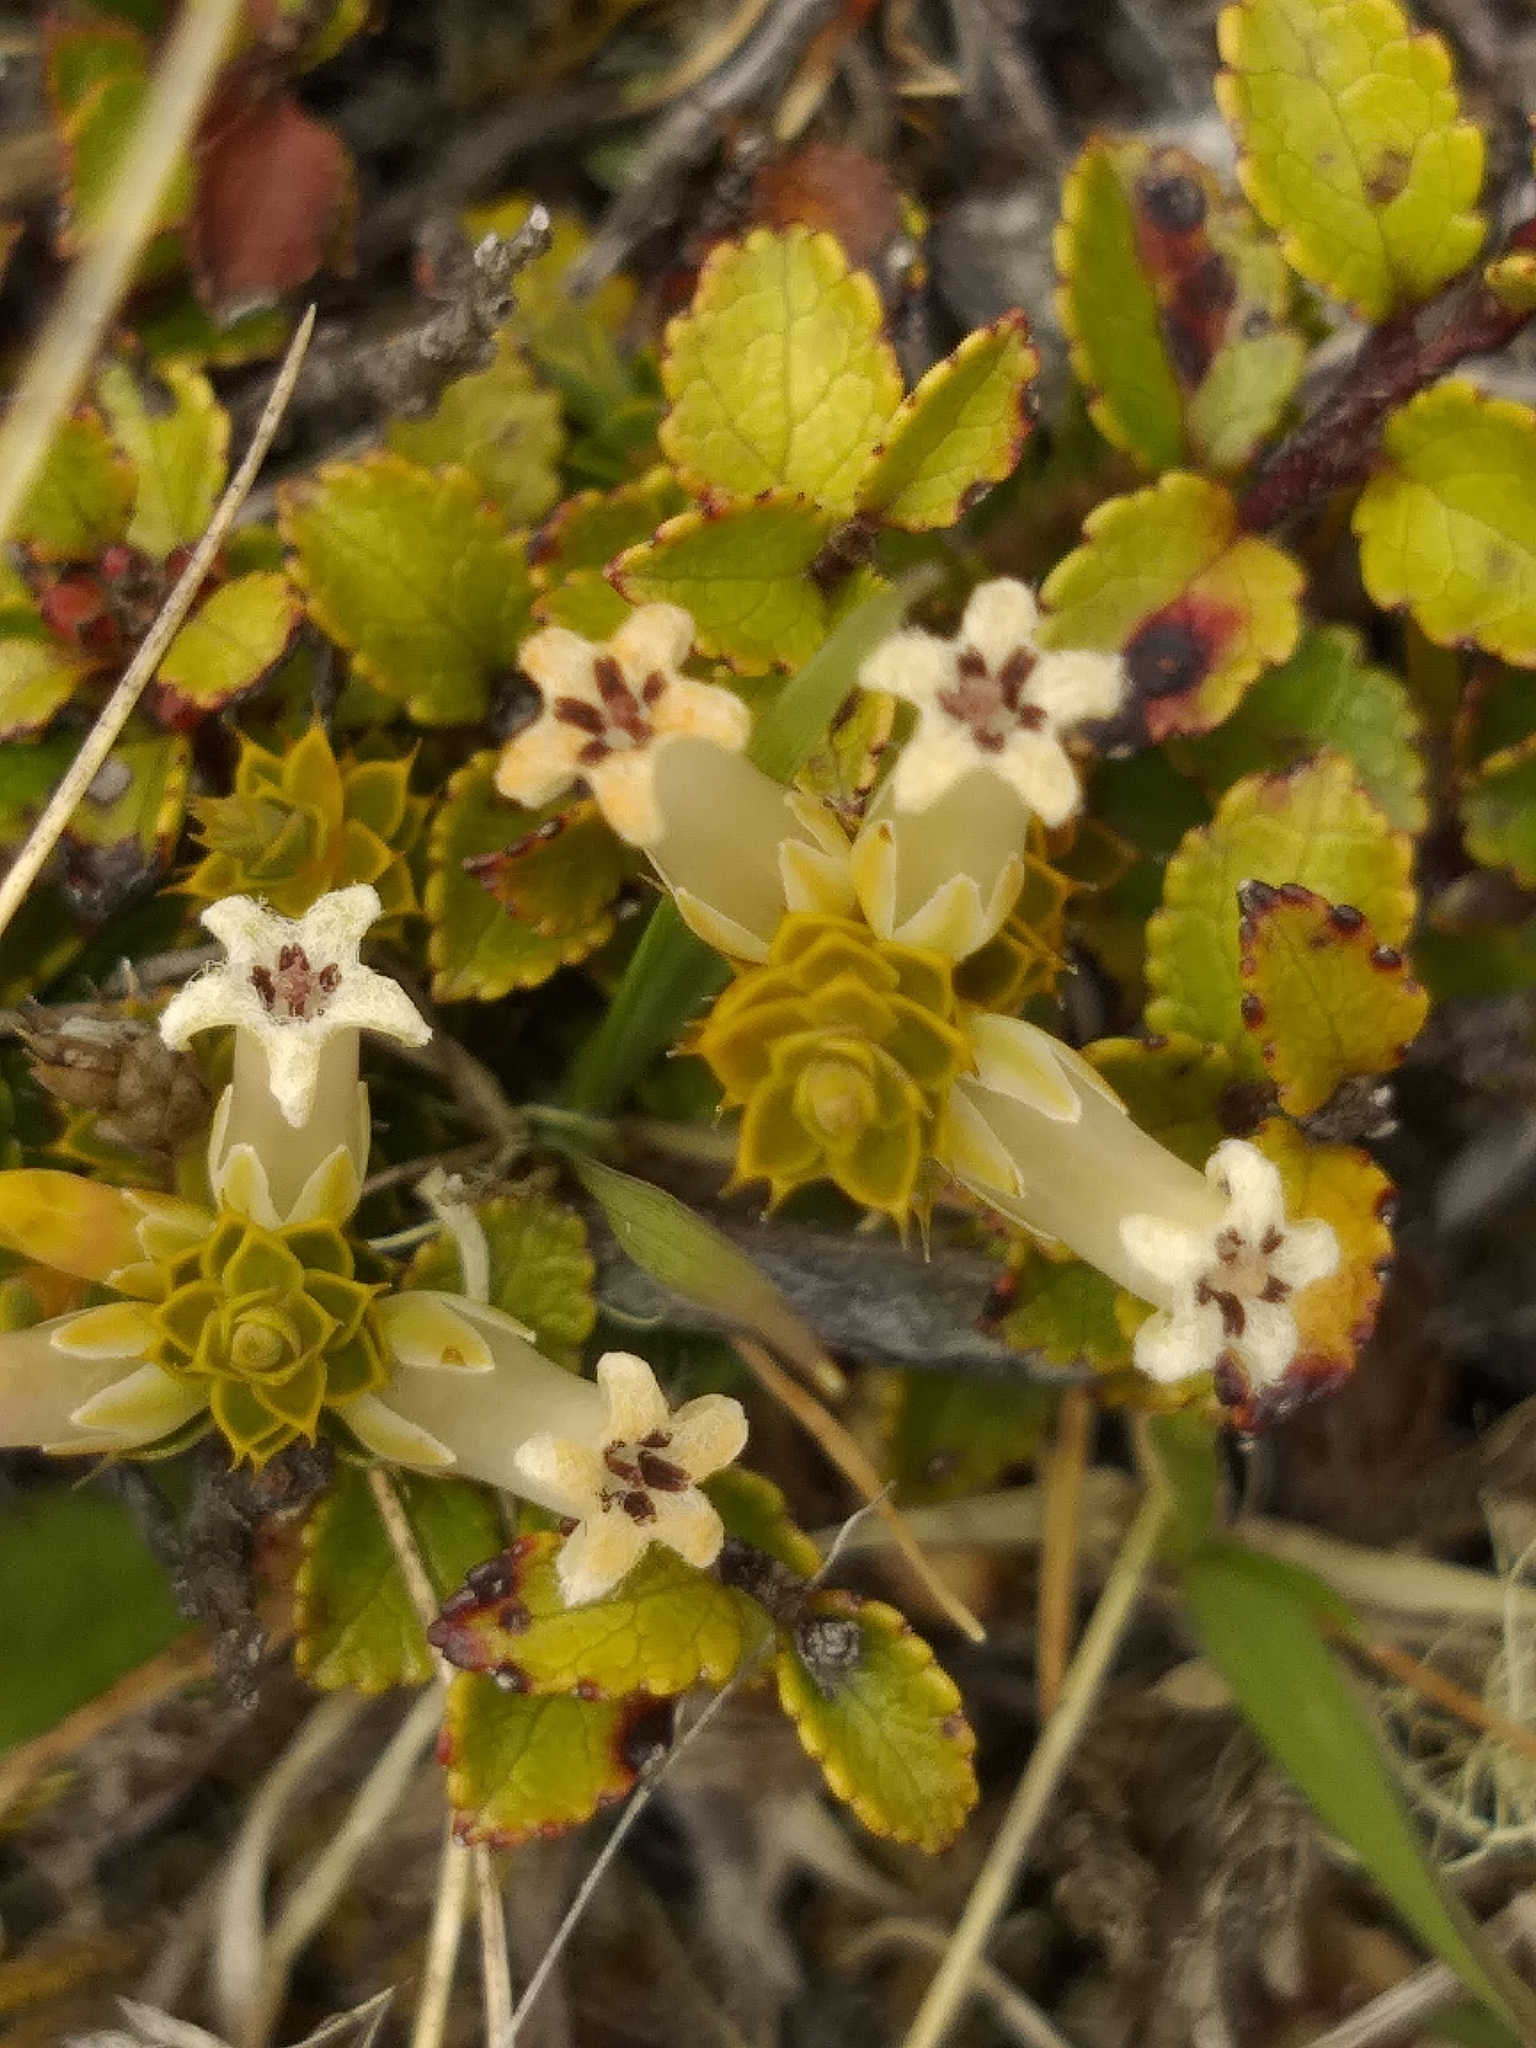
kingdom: Plantae
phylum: Tracheophyta
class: Magnoliopsida
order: Ericales
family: Ericaceae
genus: Gaultheria
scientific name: Gaultheria depressa
